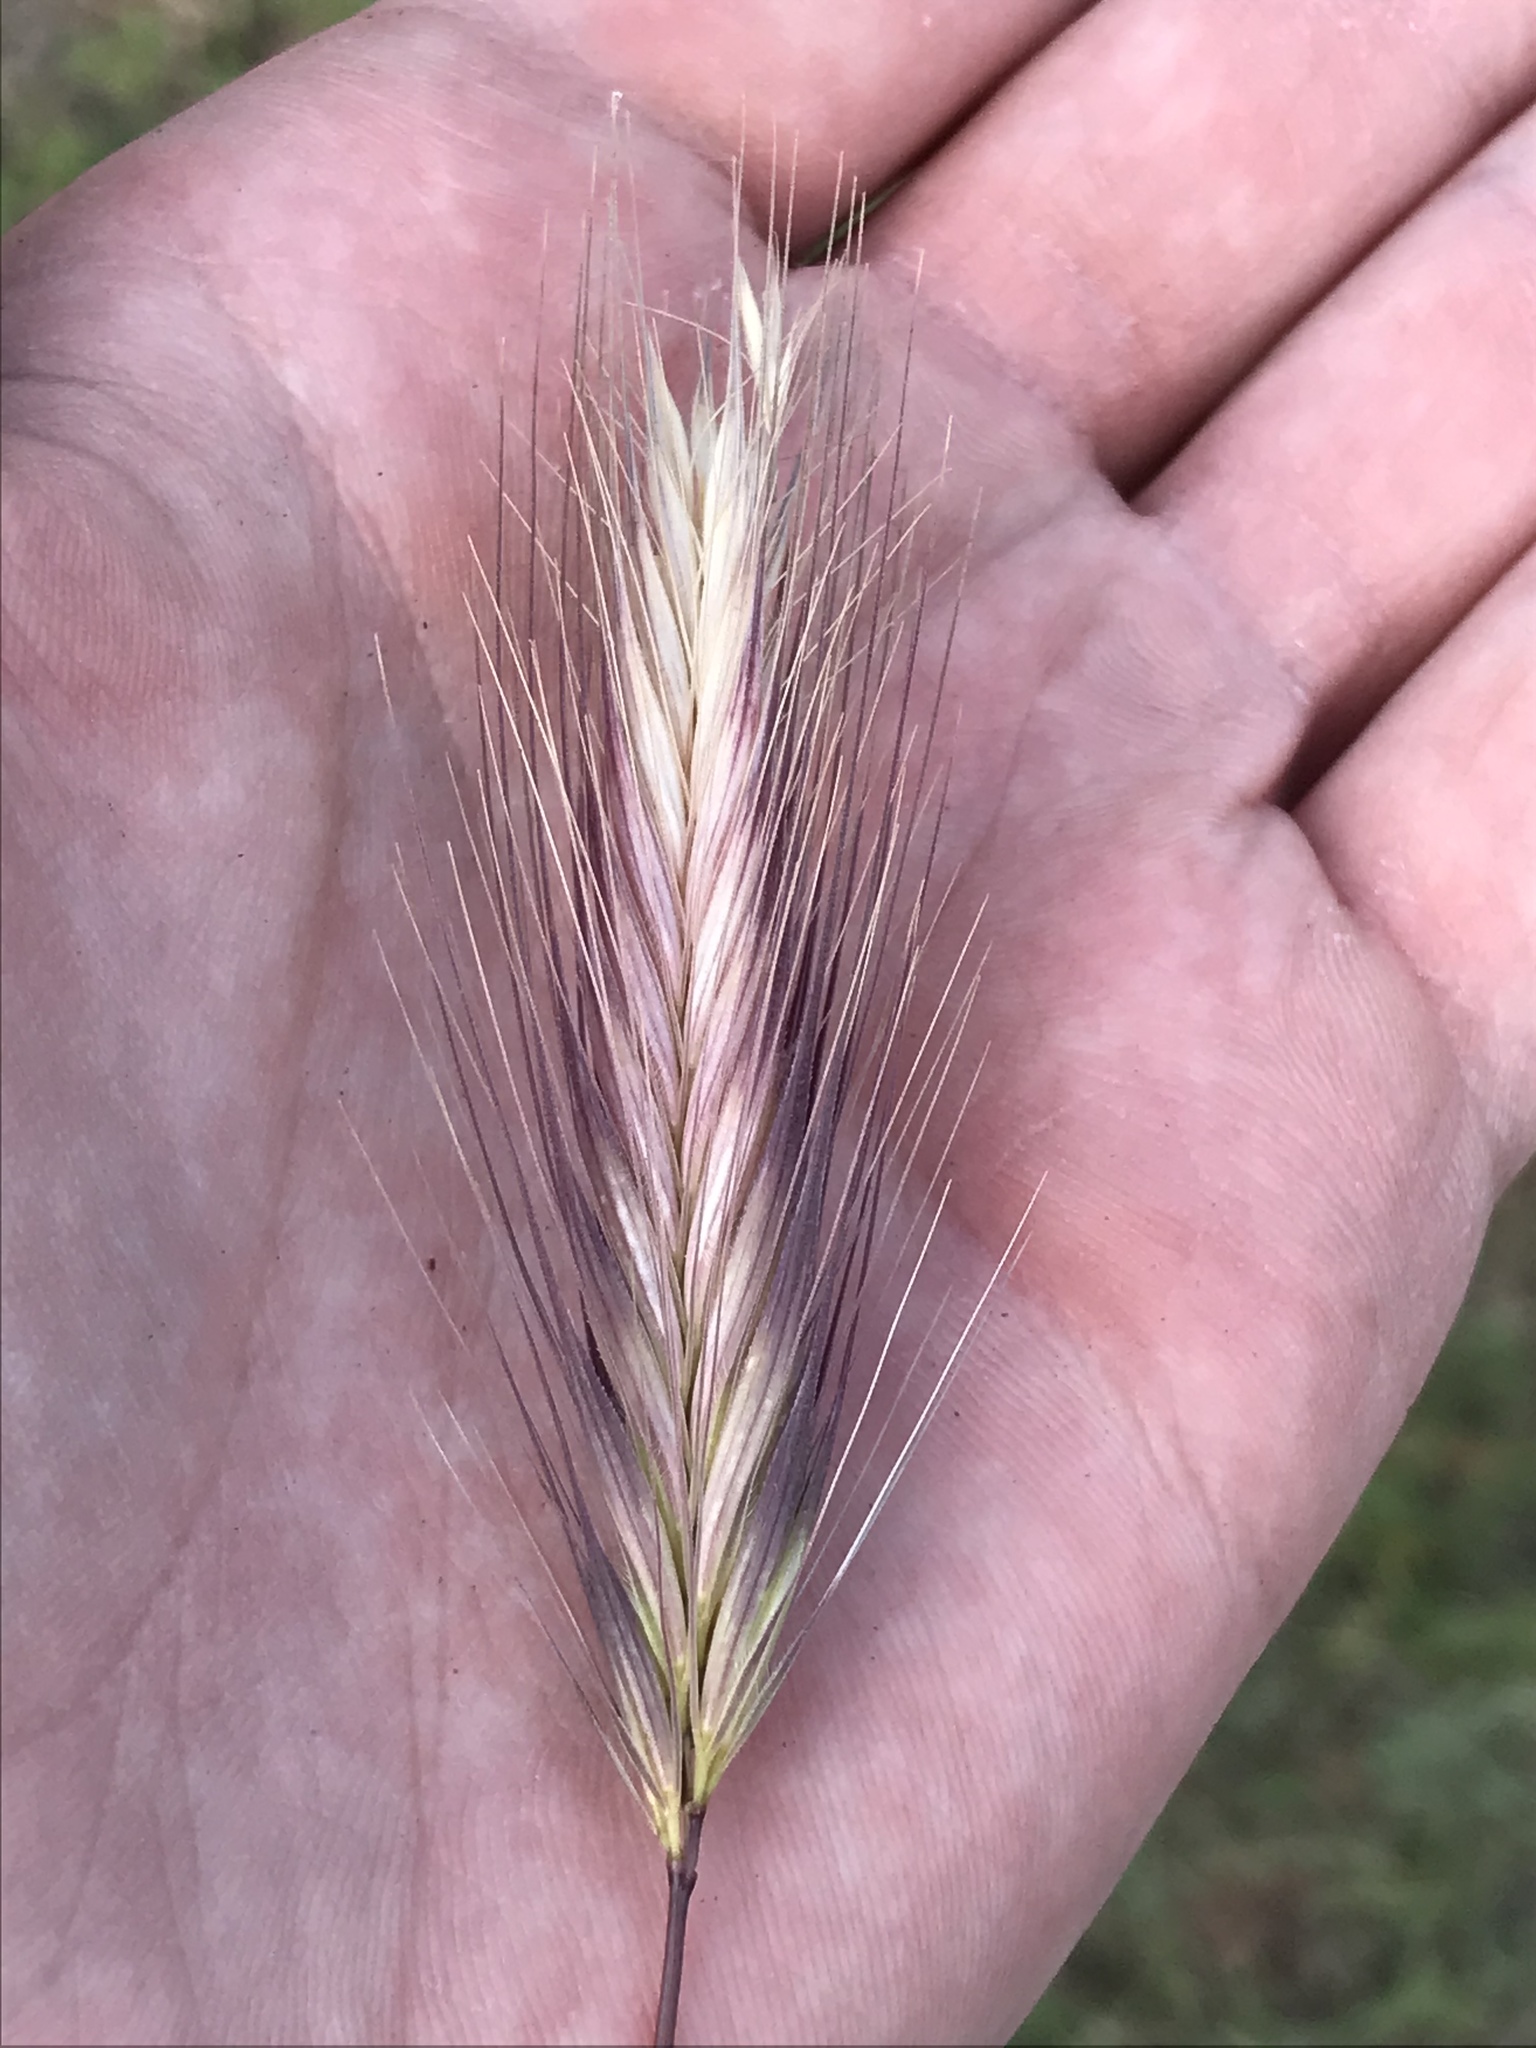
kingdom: Plantae
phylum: Tracheophyta
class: Liliopsida
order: Poales
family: Poaceae
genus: Hordeum
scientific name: Hordeum murinum
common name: Wall barley
